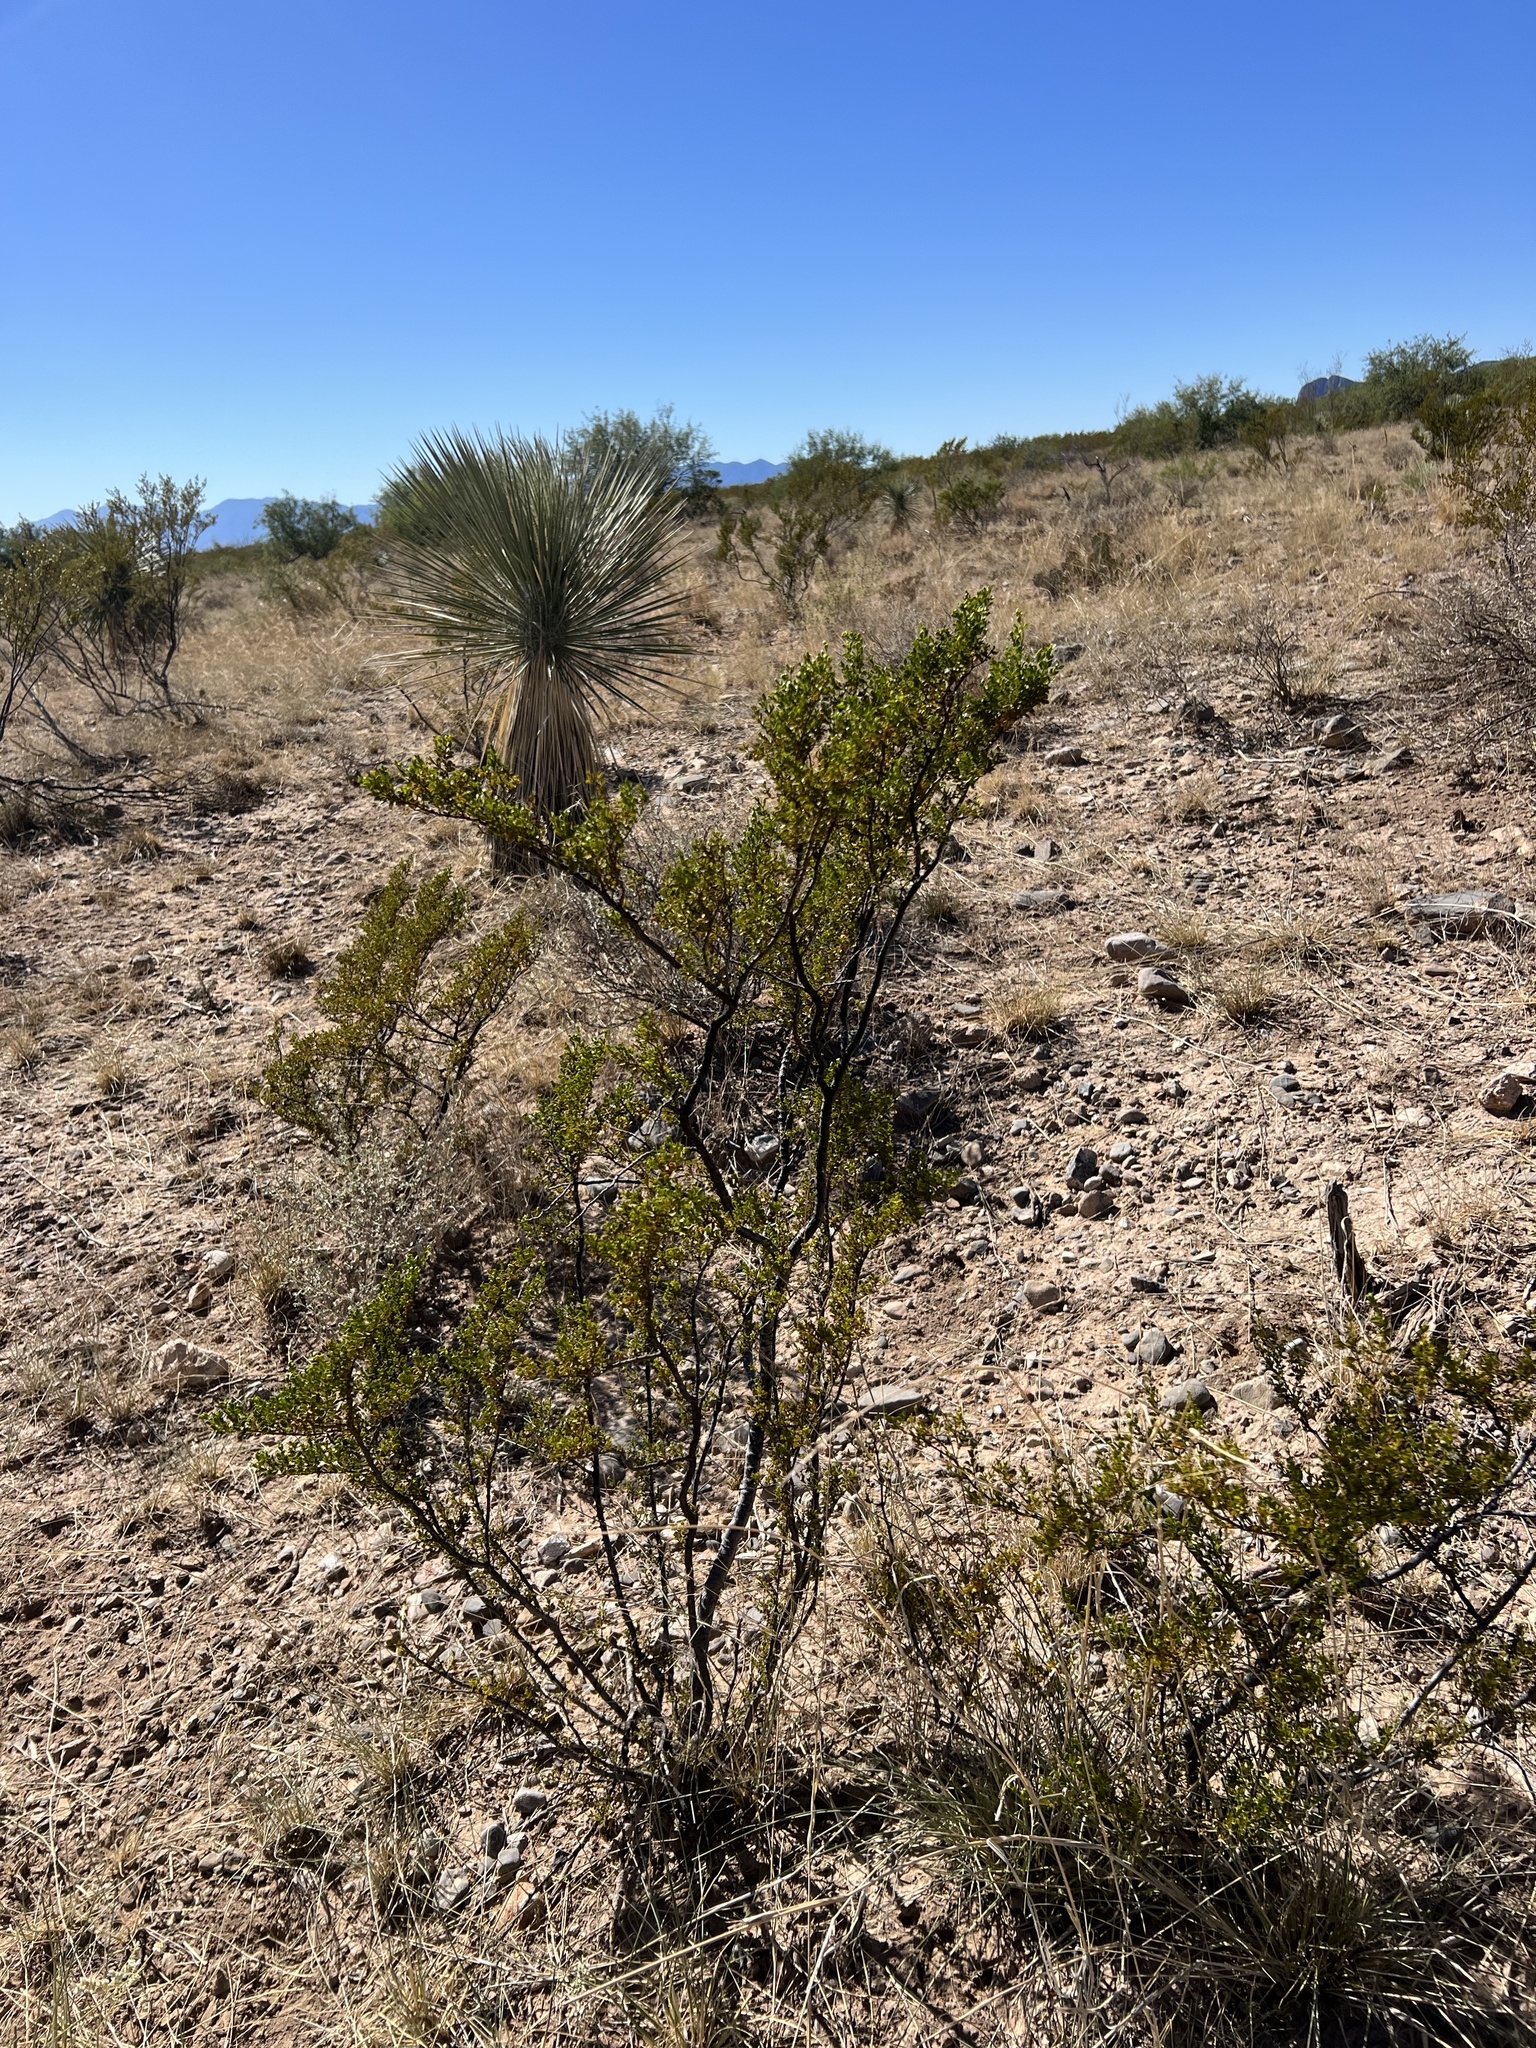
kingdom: Plantae
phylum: Tracheophyta
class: Magnoliopsida
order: Zygophyllales
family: Zygophyllaceae
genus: Larrea
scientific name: Larrea tridentata
